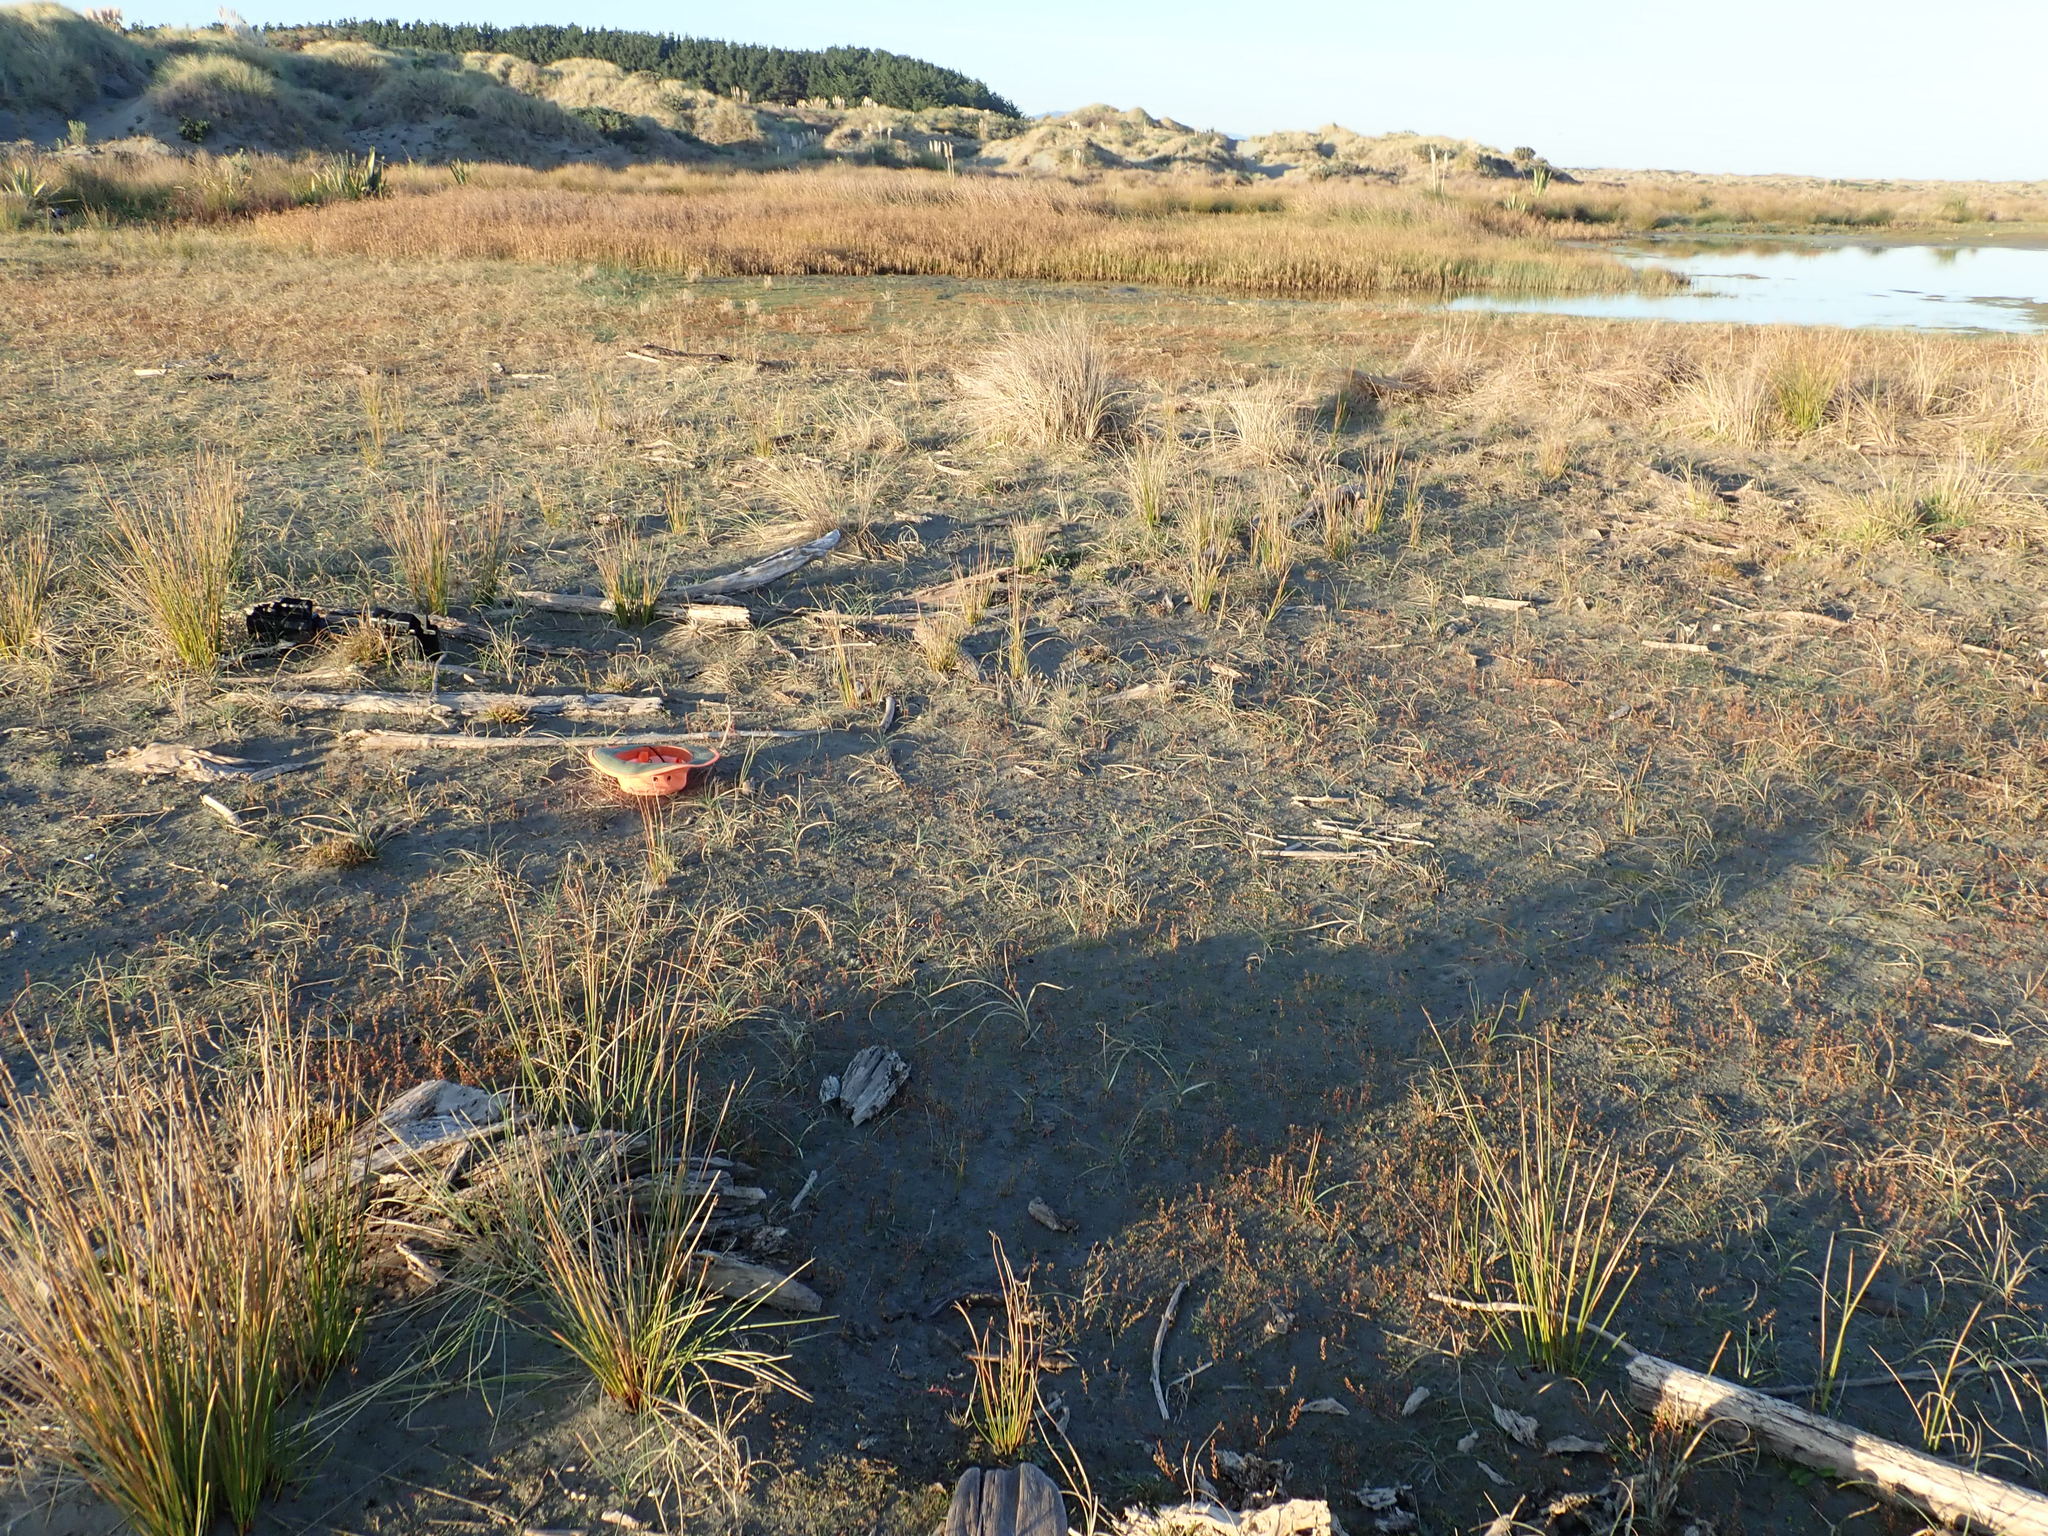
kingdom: Plantae
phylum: Tracheophyta
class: Magnoliopsida
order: Ranunculales
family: Ranunculaceae
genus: Ranunculus
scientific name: Ranunculus acaulis
